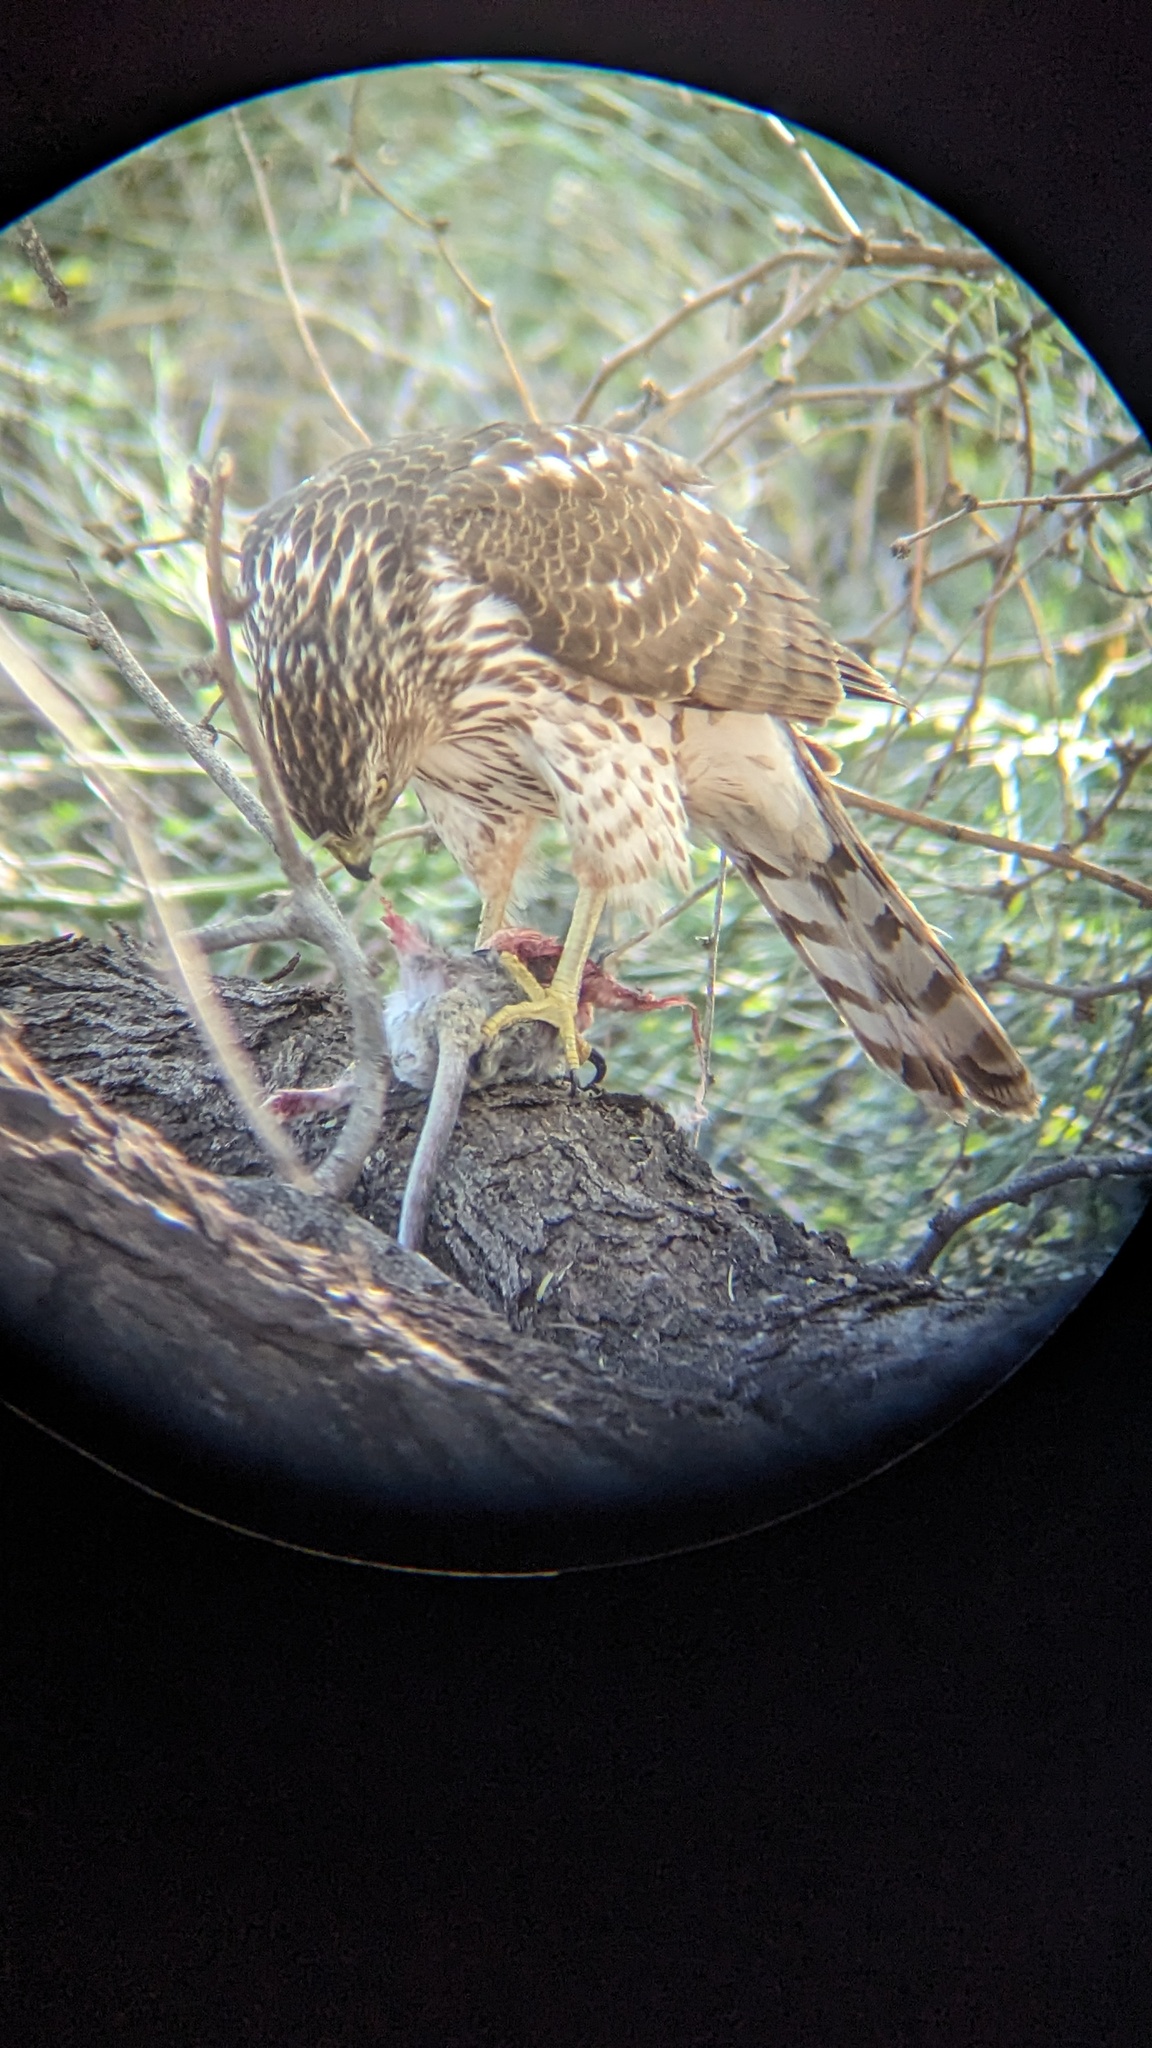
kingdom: Animalia
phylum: Chordata
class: Aves
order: Accipitriformes
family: Accipitridae
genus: Accipiter
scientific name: Accipiter cooperii
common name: Cooper's hawk
